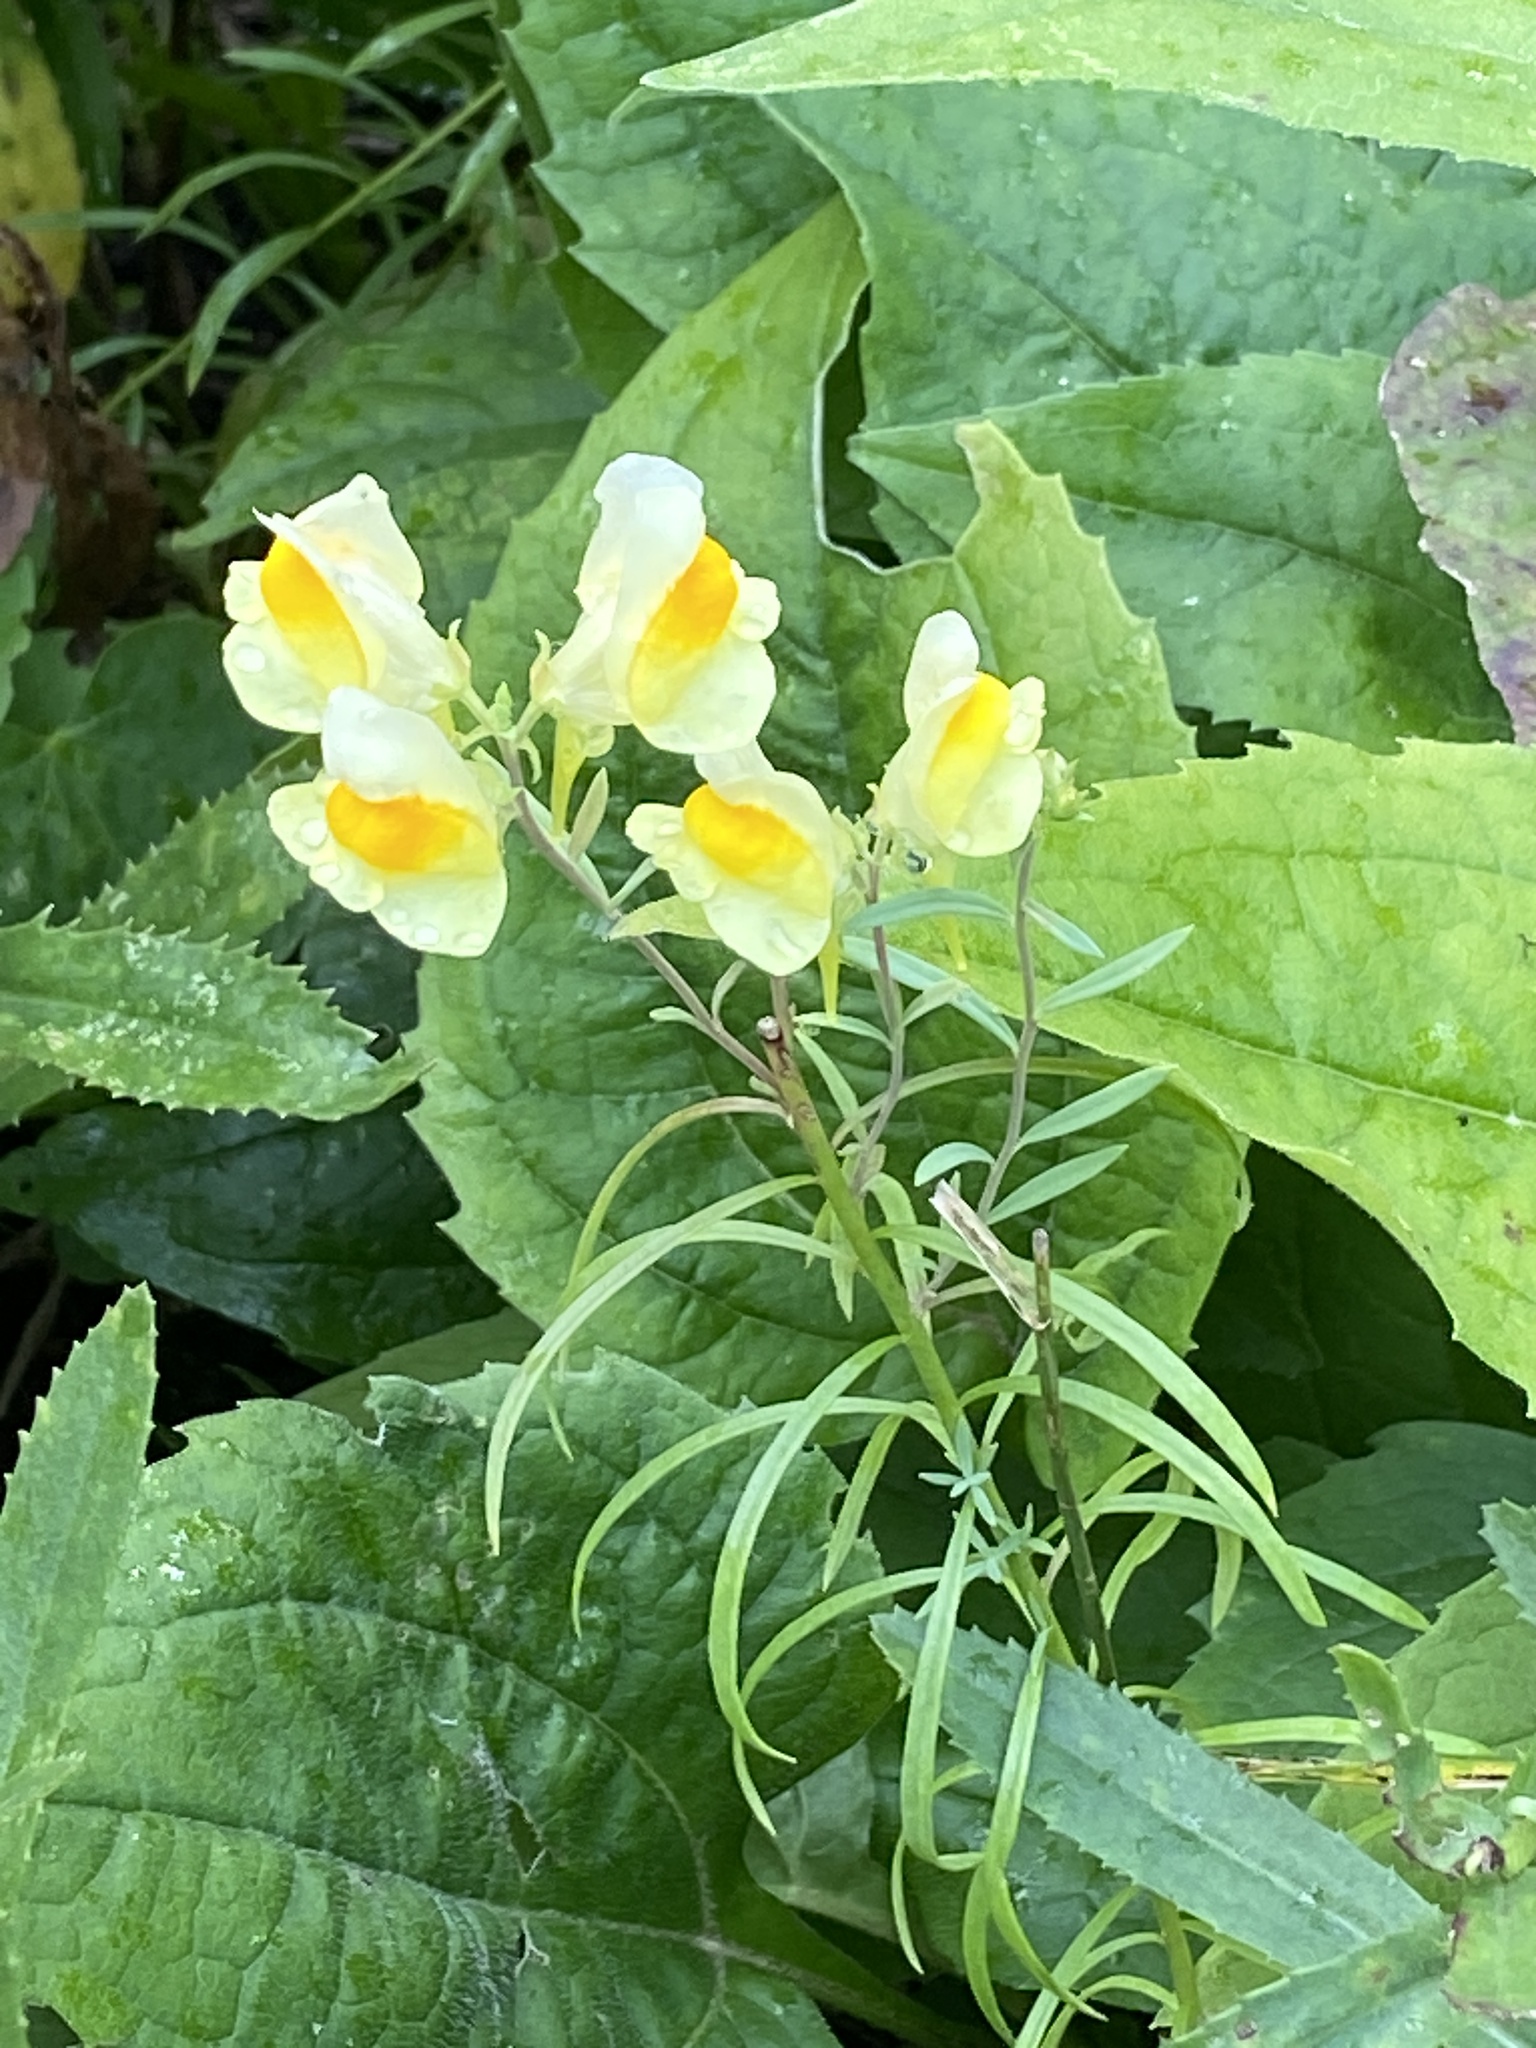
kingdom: Plantae
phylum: Tracheophyta
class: Magnoliopsida
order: Lamiales
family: Plantaginaceae
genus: Linaria
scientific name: Linaria vulgaris
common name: Butter and eggs
